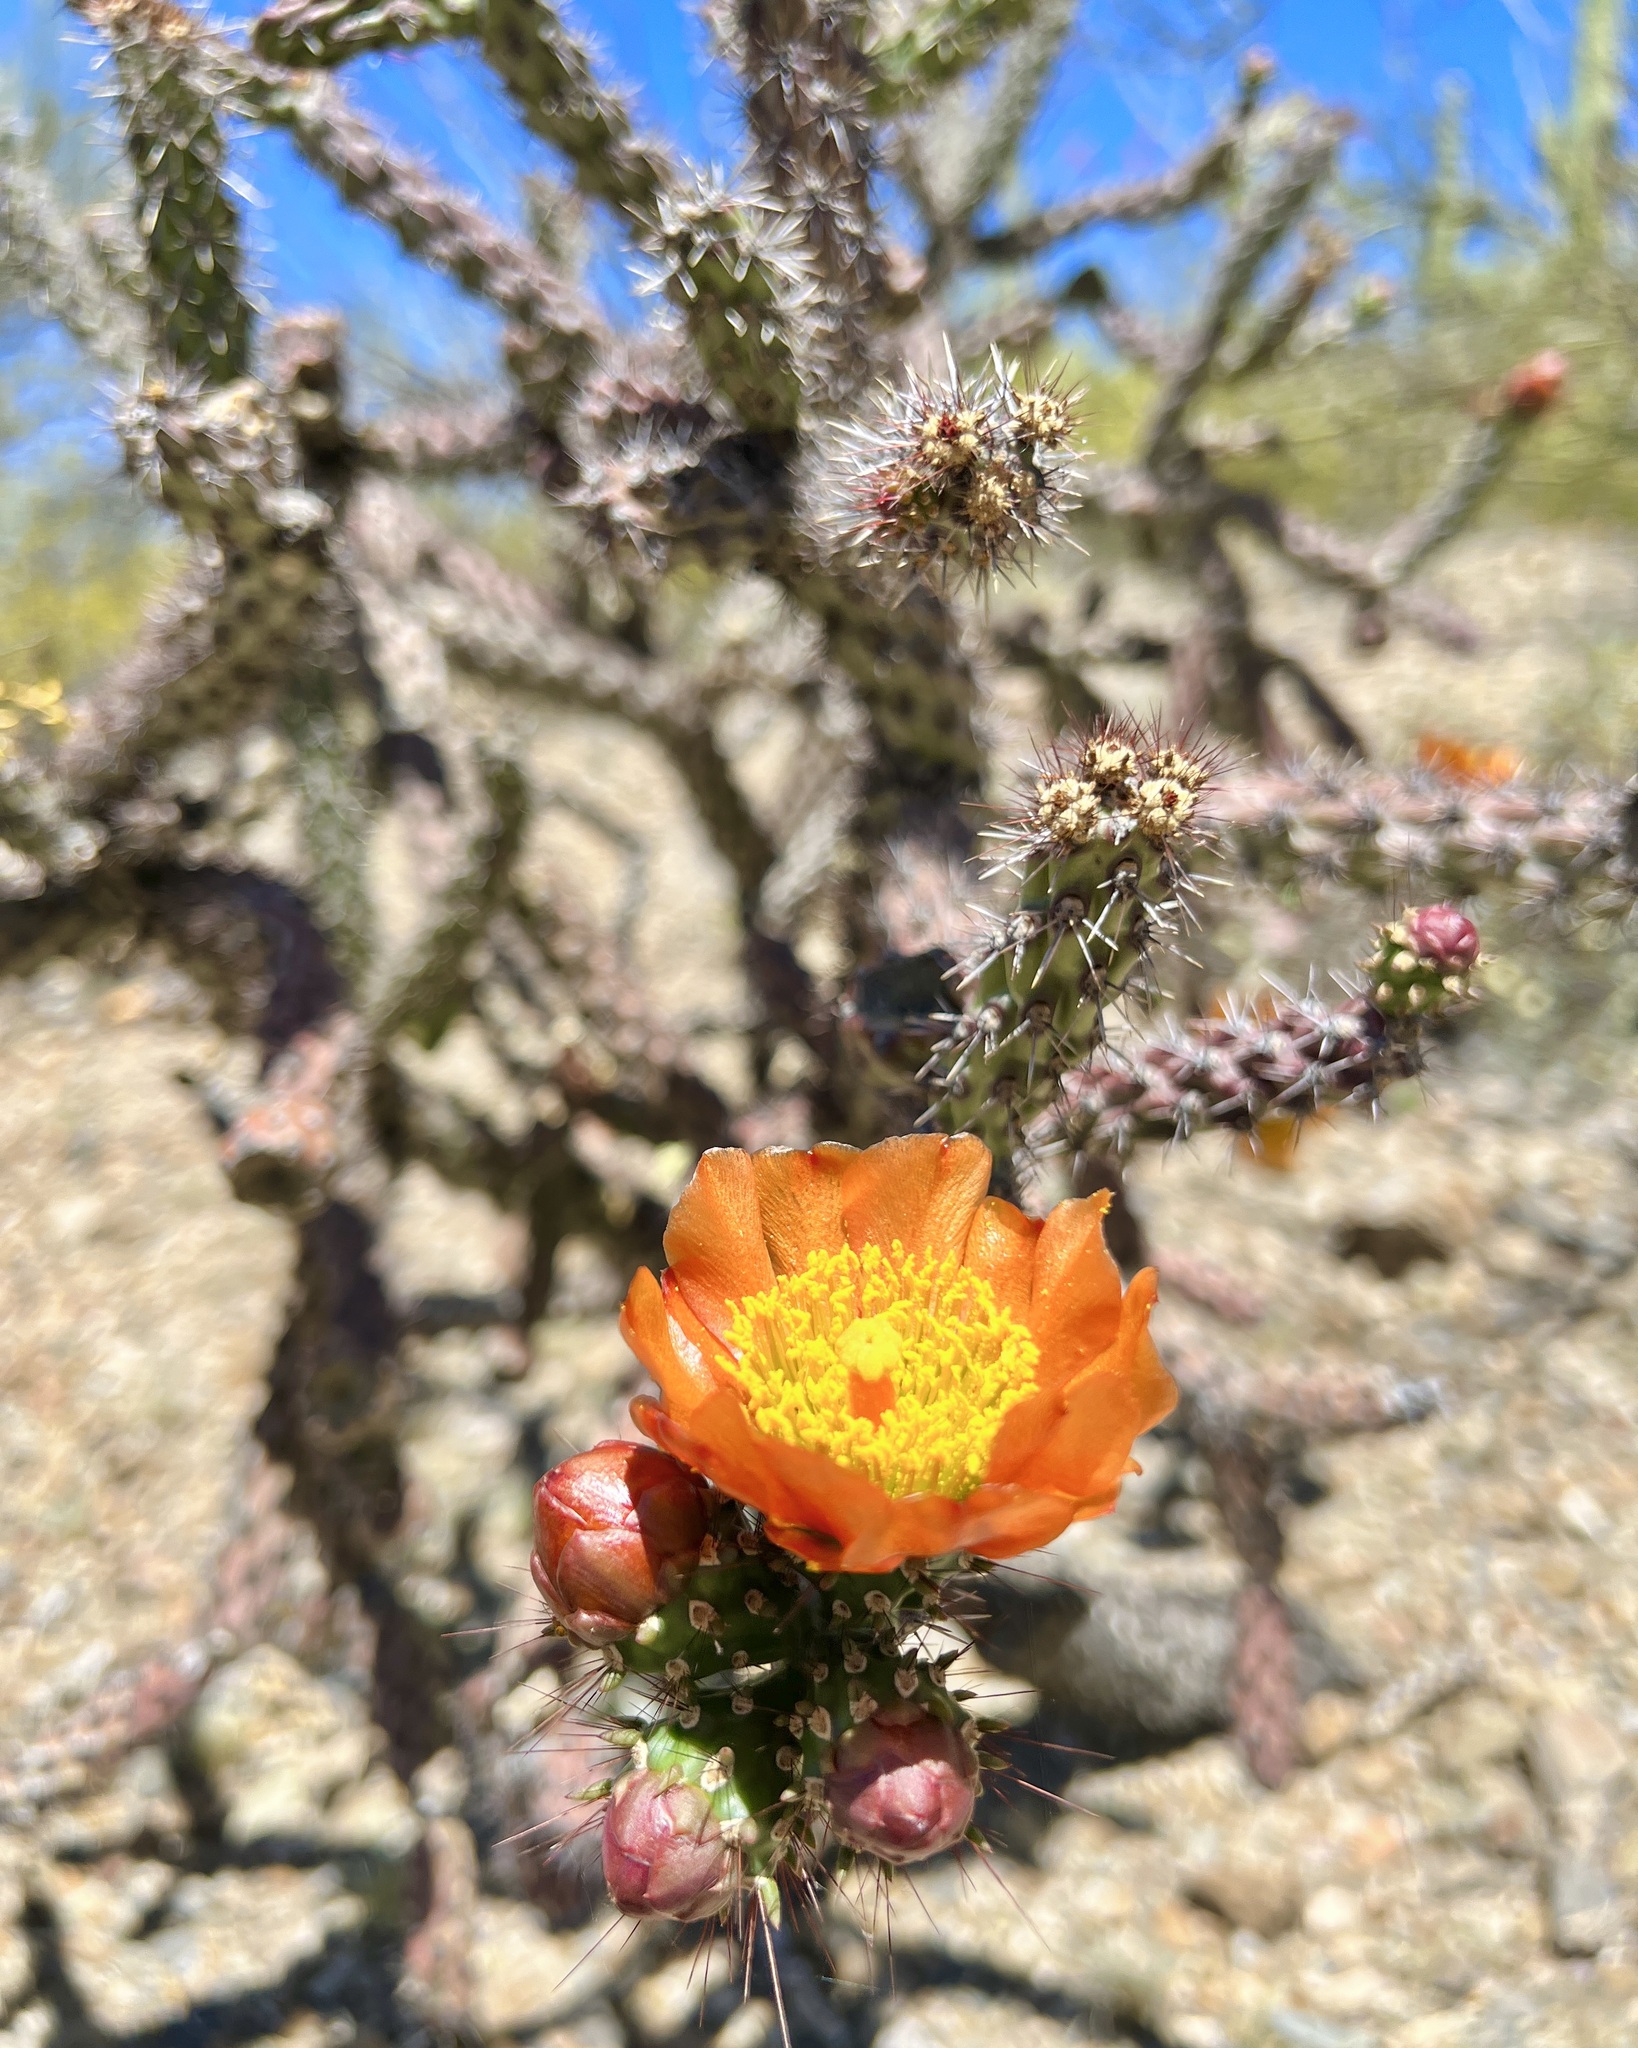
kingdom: Plantae
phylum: Tracheophyta
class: Magnoliopsida
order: Caryophyllales
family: Cactaceae
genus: Cylindropuntia
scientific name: Cylindropuntia thurberi
